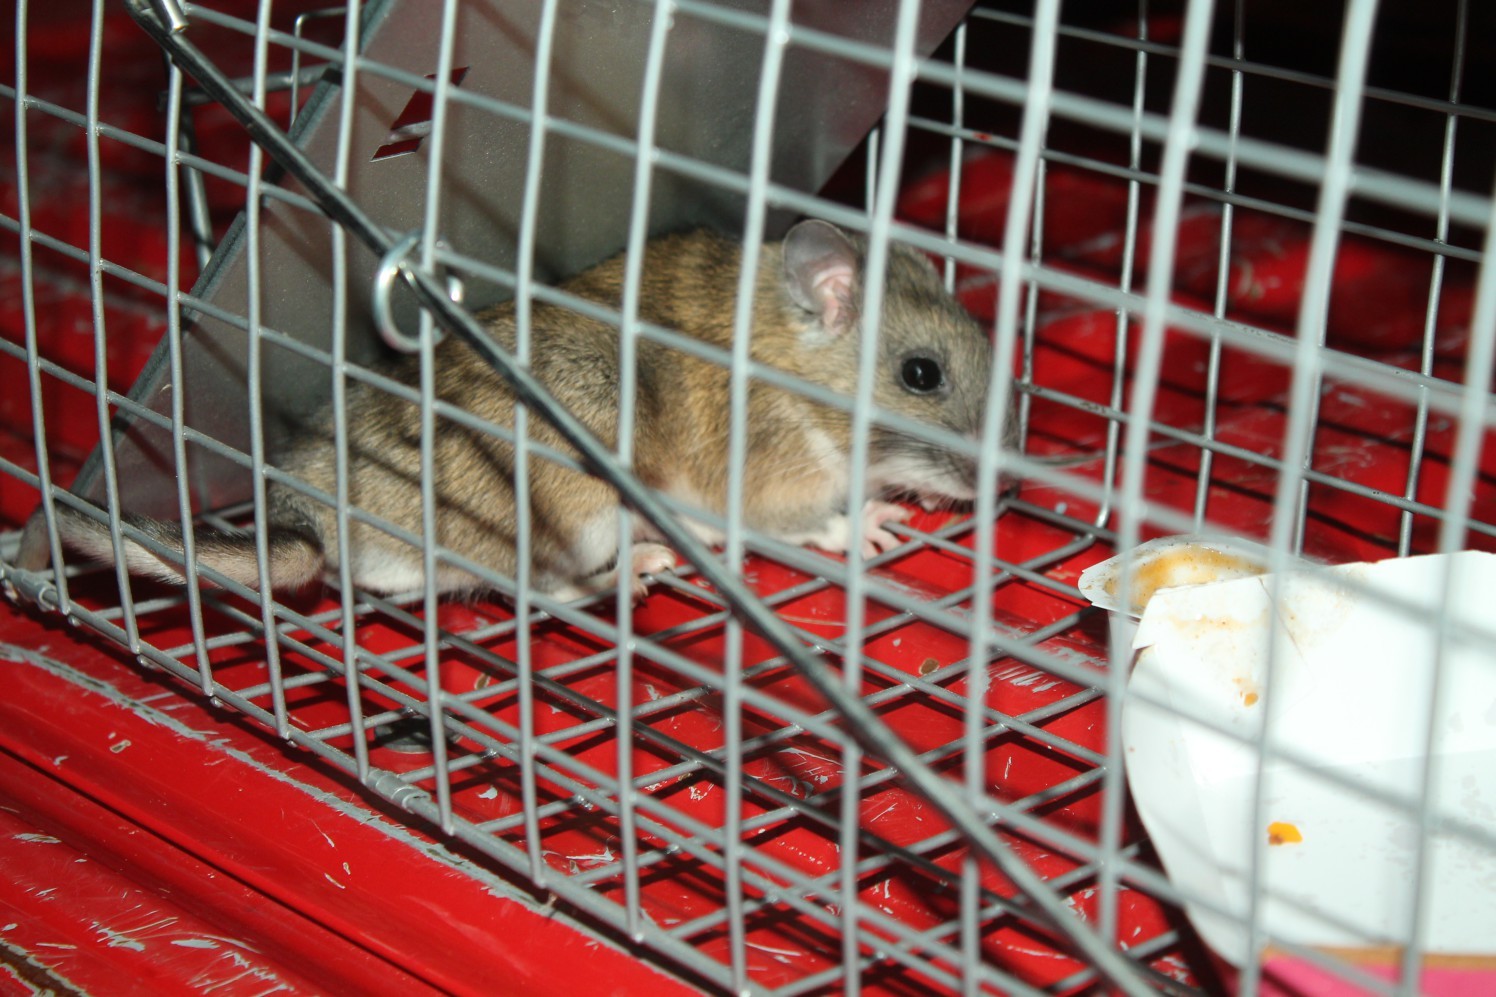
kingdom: Animalia
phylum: Chordata
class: Mammalia
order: Rodentia
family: Cricetidae
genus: Neotoma
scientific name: Neotoma floridana
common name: Eastern woodrat
